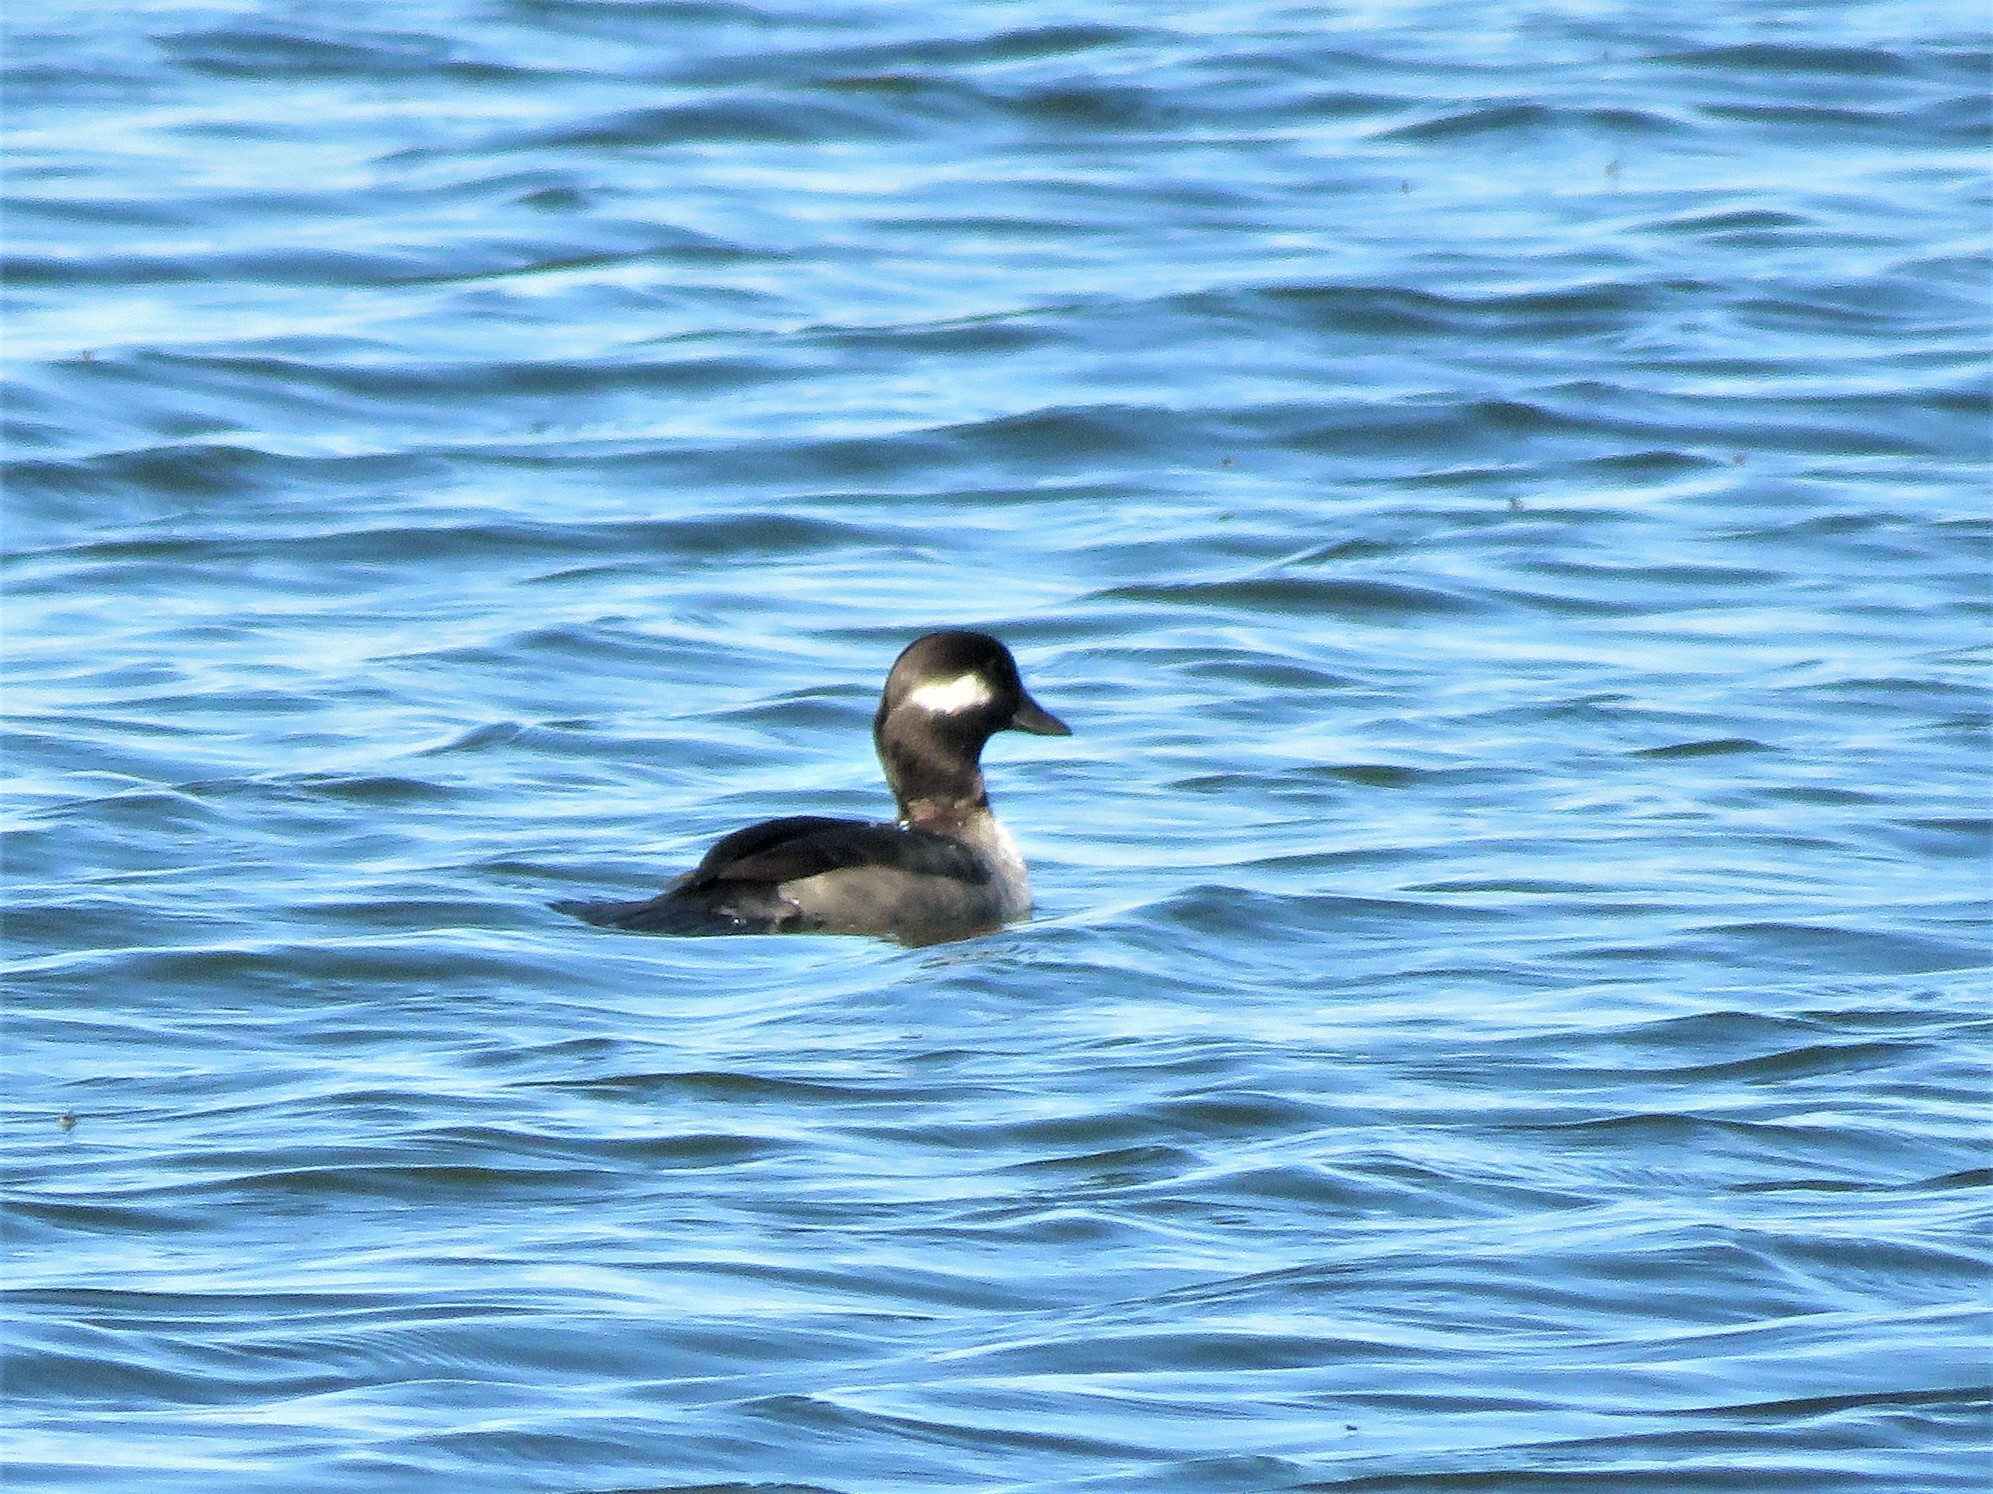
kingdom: Animalia
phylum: Chordata
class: Aves
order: Anseriformes
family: Anatidae
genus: Bucephala
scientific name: Bucephala albeola
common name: Bufflehead
